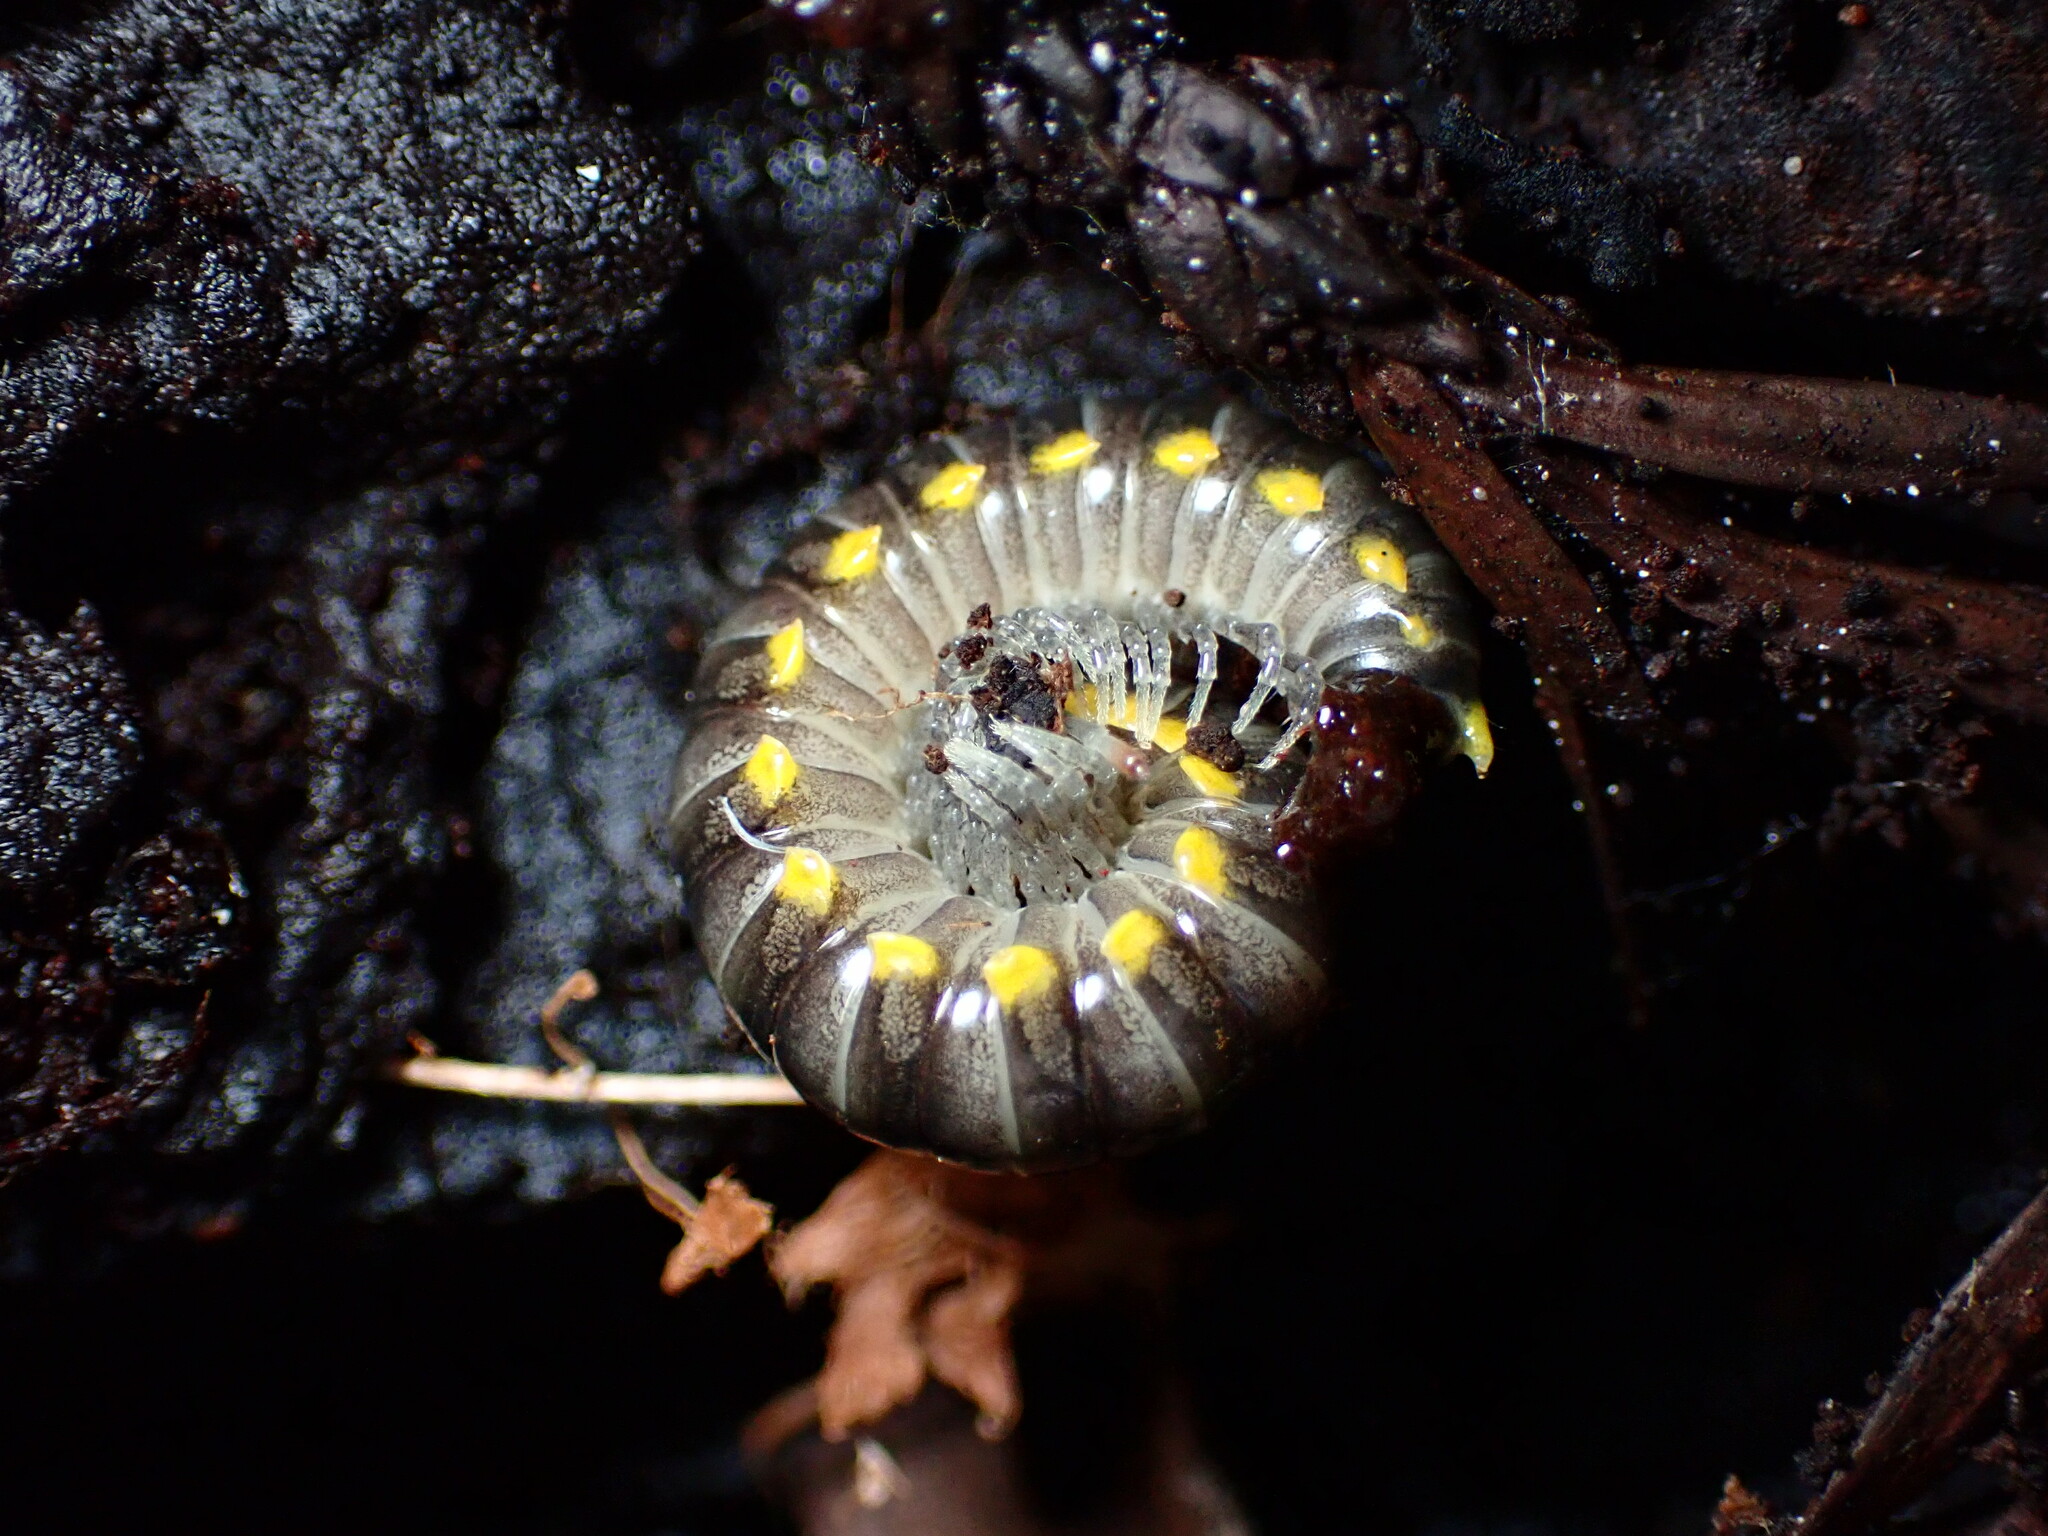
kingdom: Animalia
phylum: Arthropoda
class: Diplopoda
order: Polydesmida
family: Xystodesmidae
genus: Harpaphe
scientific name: Harpaphe haydeniana
